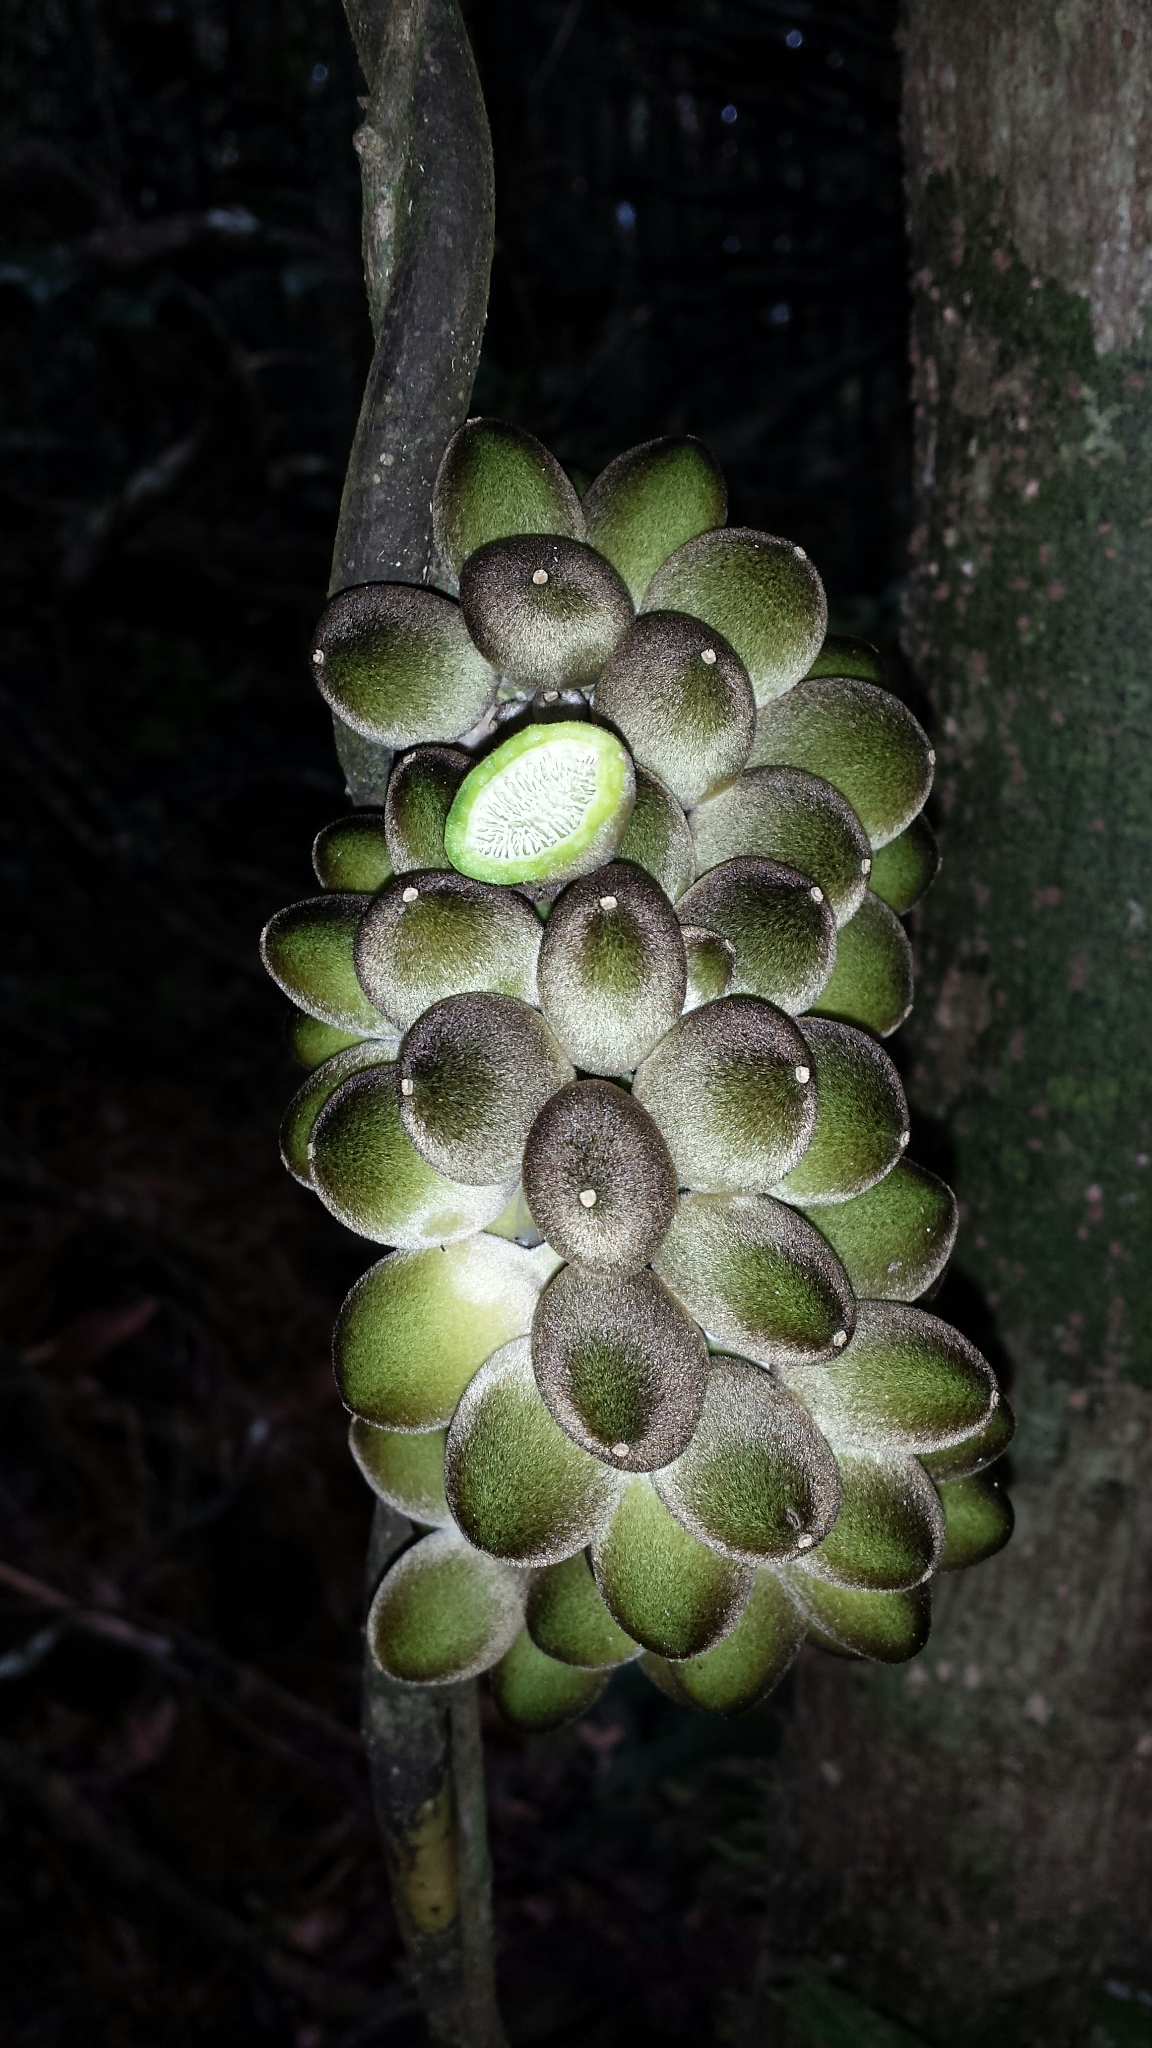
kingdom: Plantae
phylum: Tracheophyta
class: Magnoliopsida
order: Icacinales
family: Icacinaceae
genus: Pyrenacantha
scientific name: Pyrenacantha capitata
